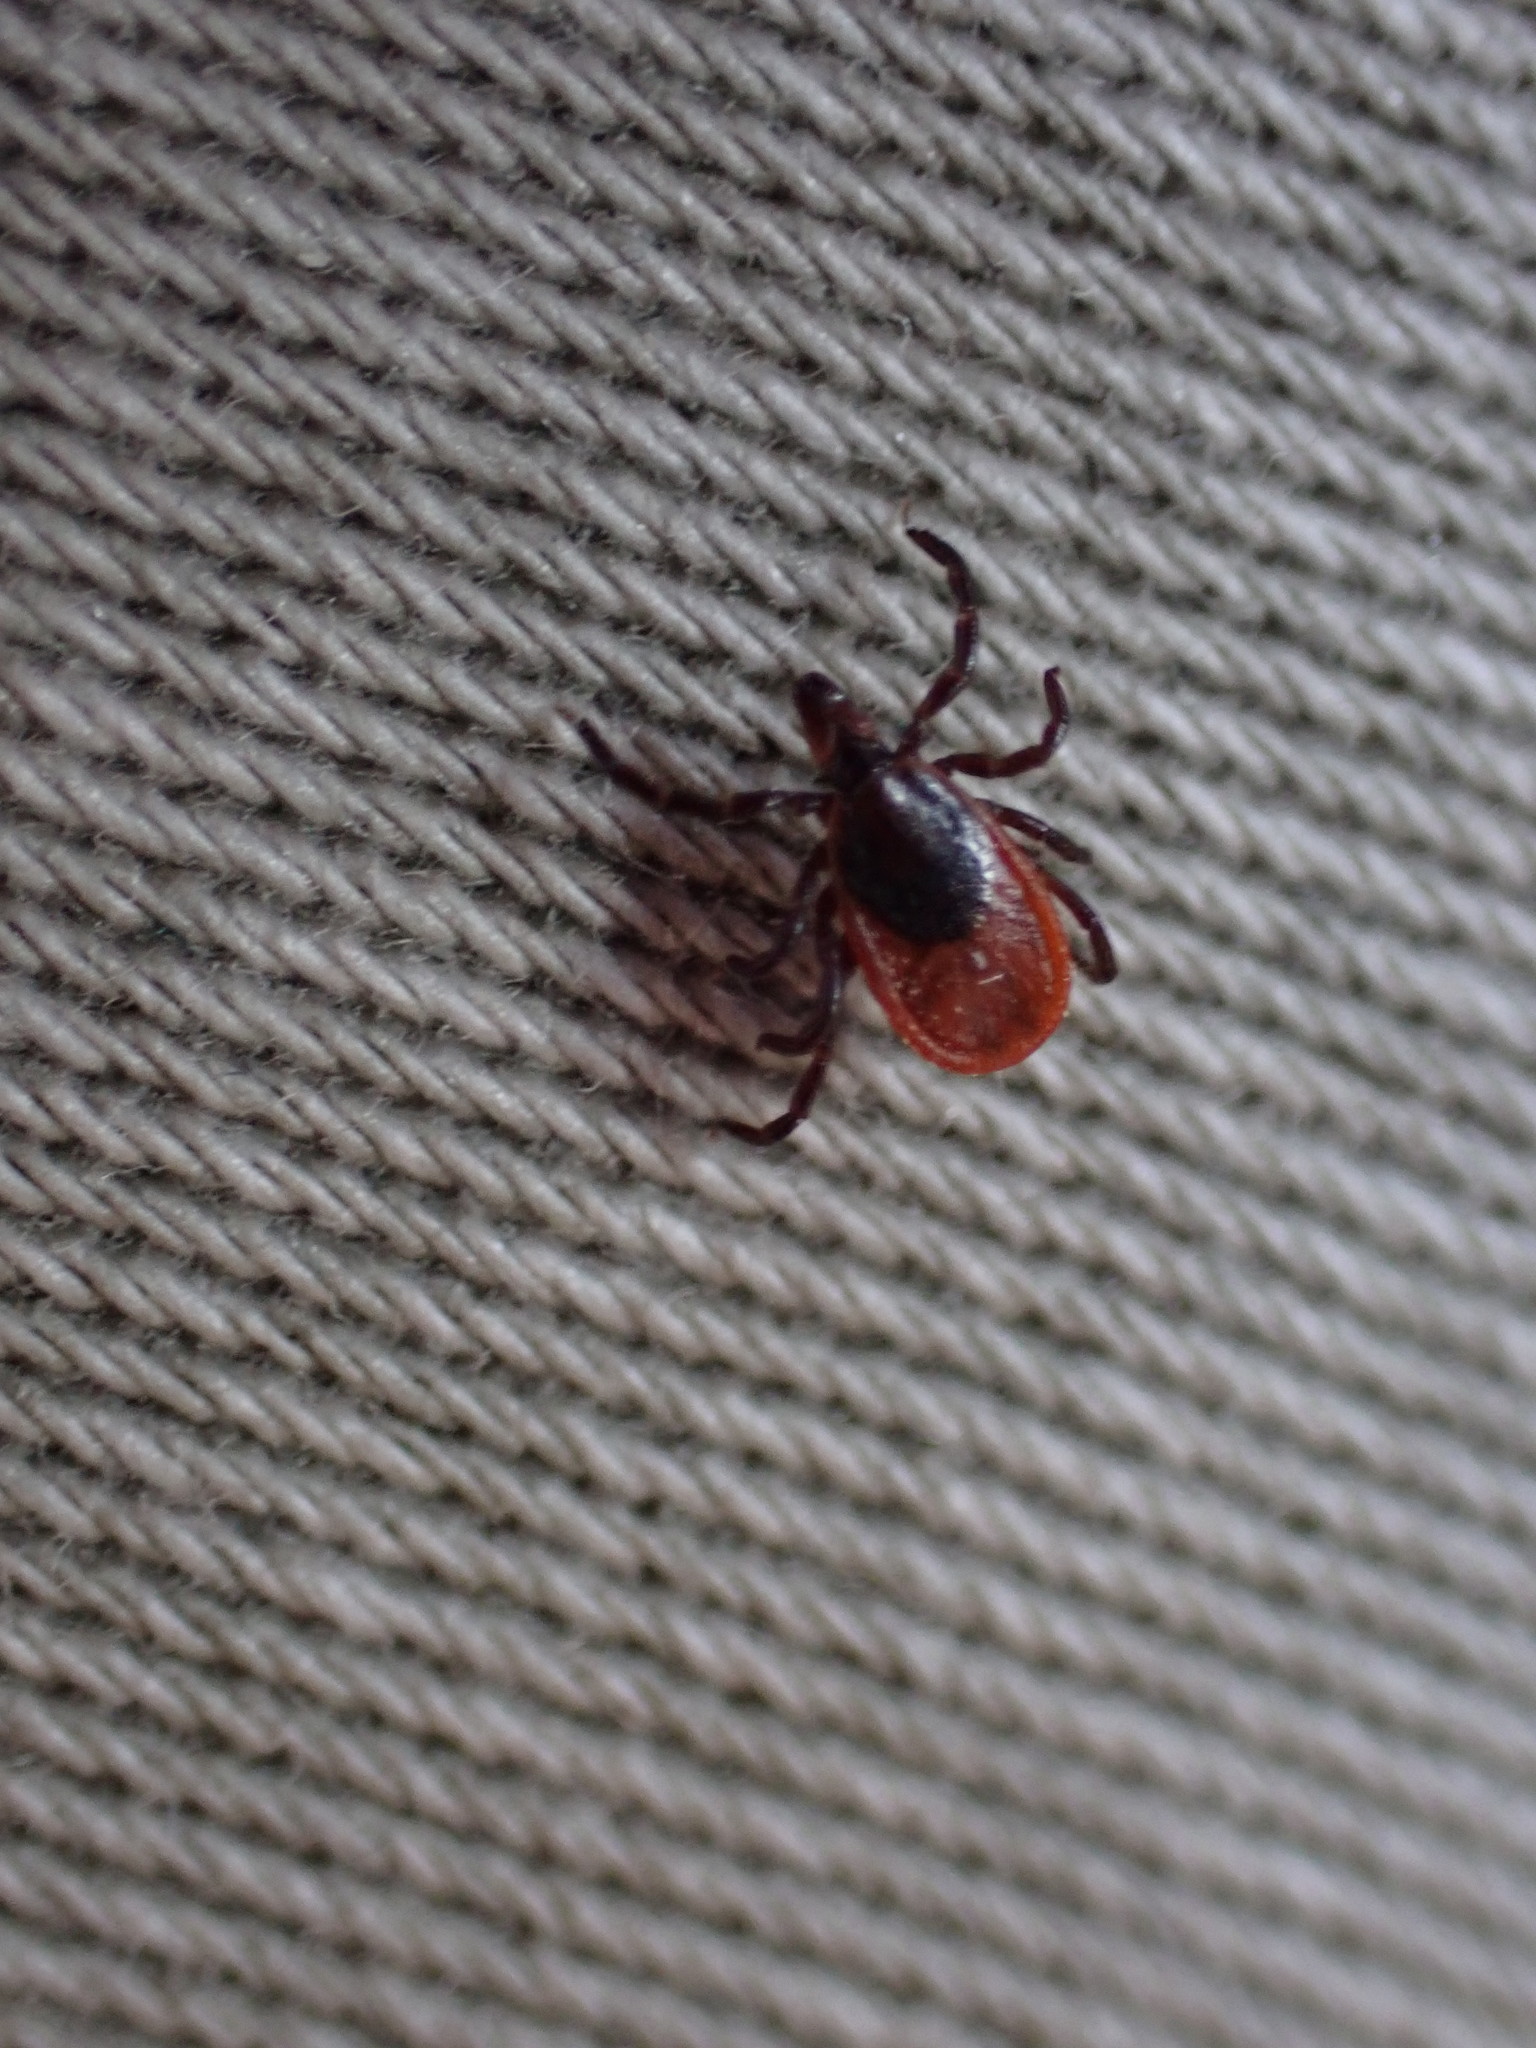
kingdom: Animalia
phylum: Arthropoda
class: Arachnida
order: Ixodida
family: Ixodidae
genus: Ixodes
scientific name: Ixodes scapularis
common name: Black legged tick
